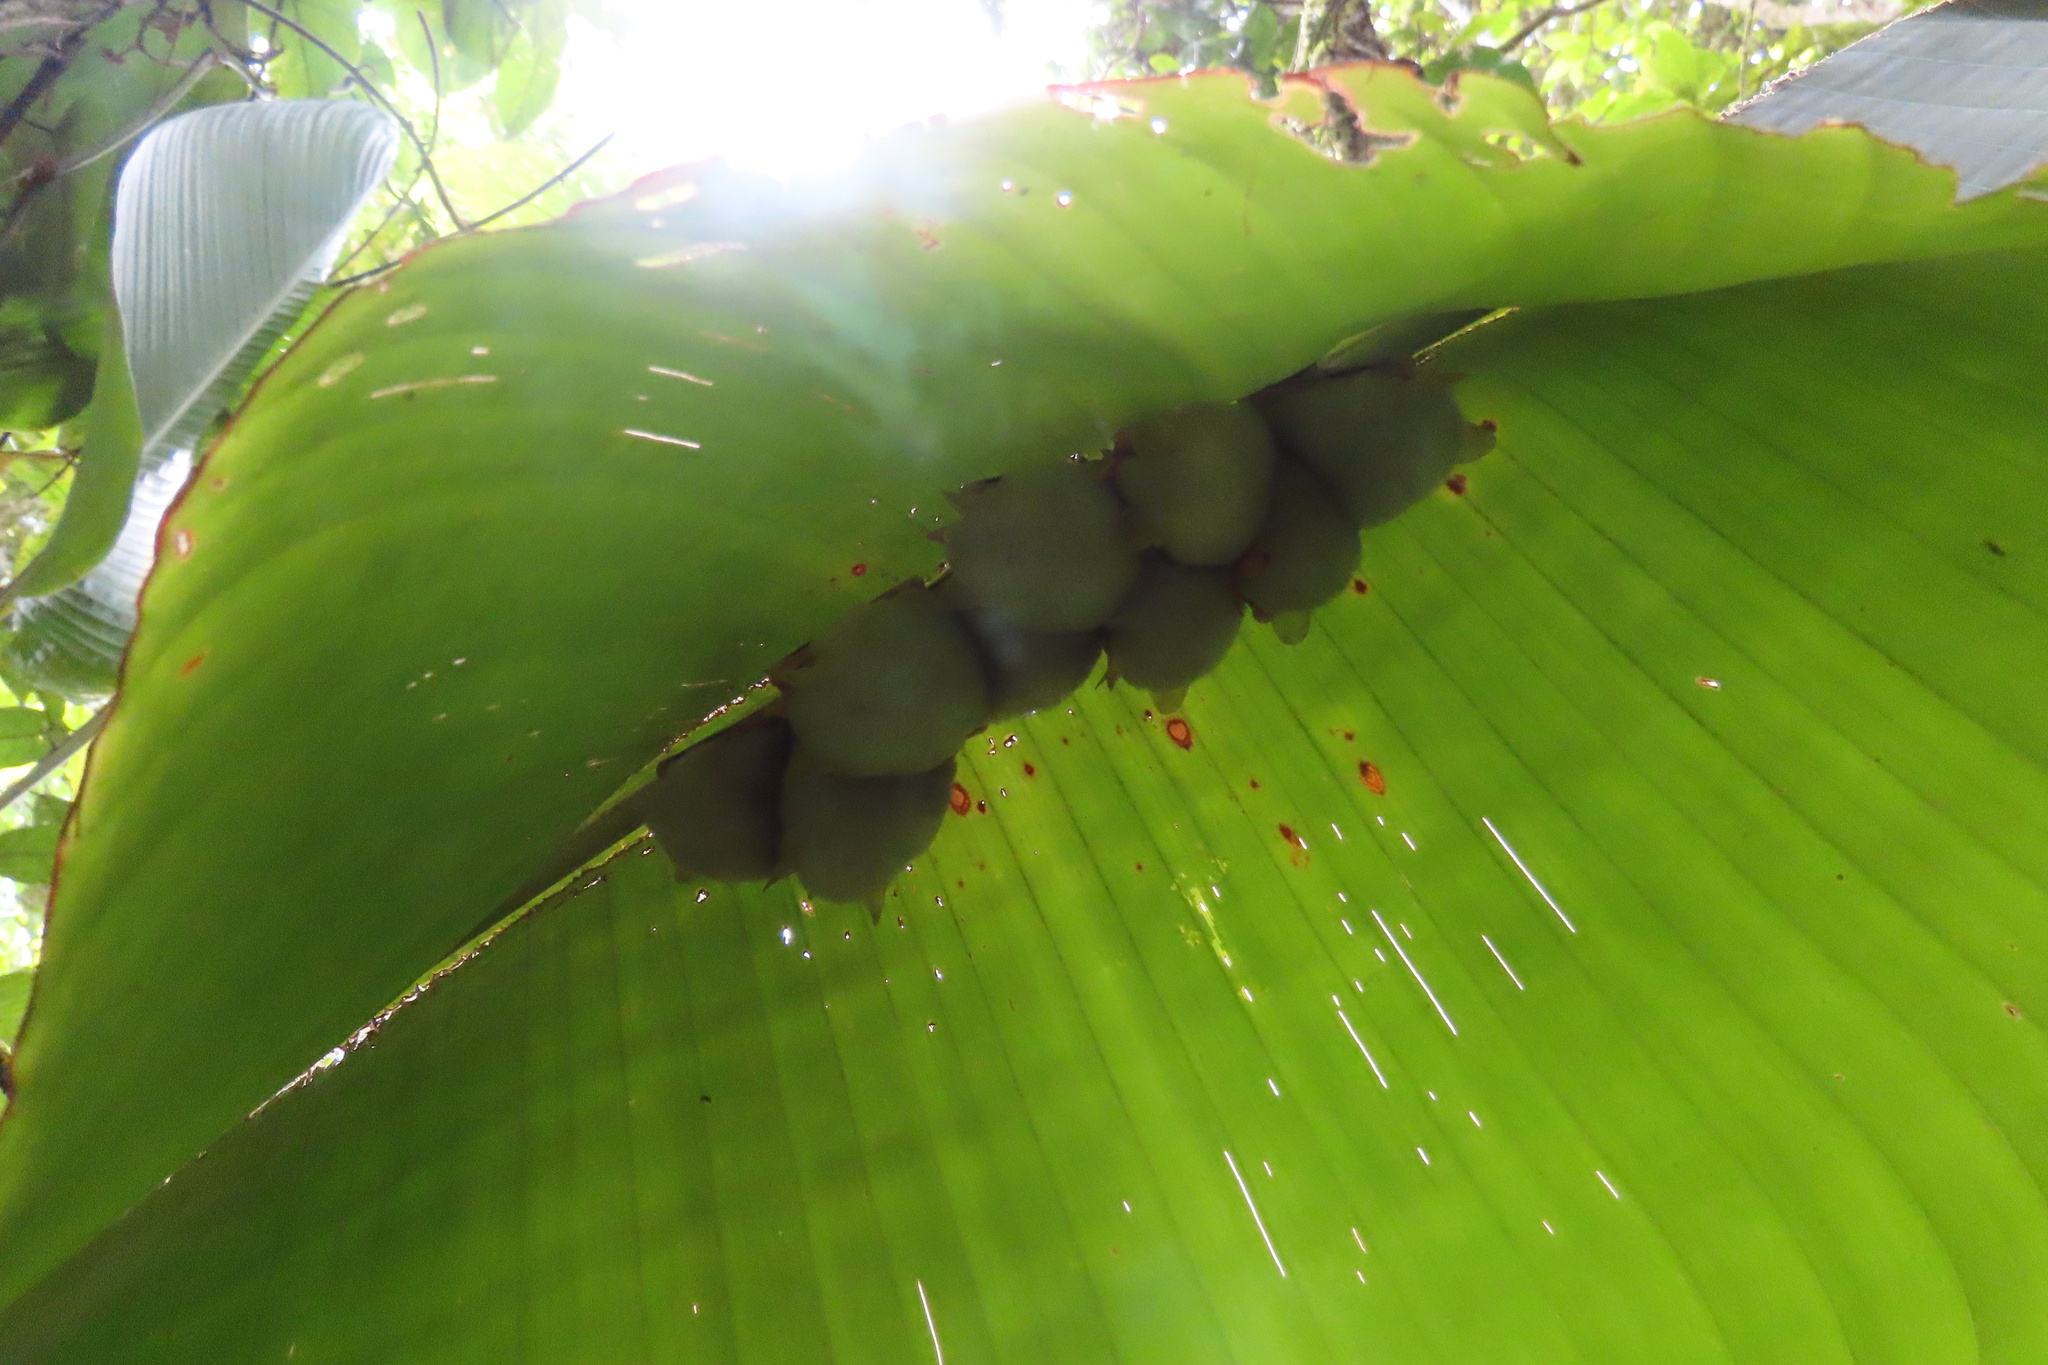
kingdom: Animalia
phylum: Chordata
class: Mammalia
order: Chiroptera
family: Phyllostomidae
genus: Ectophylla
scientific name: Ectophylla alba
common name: Honduran white bat
